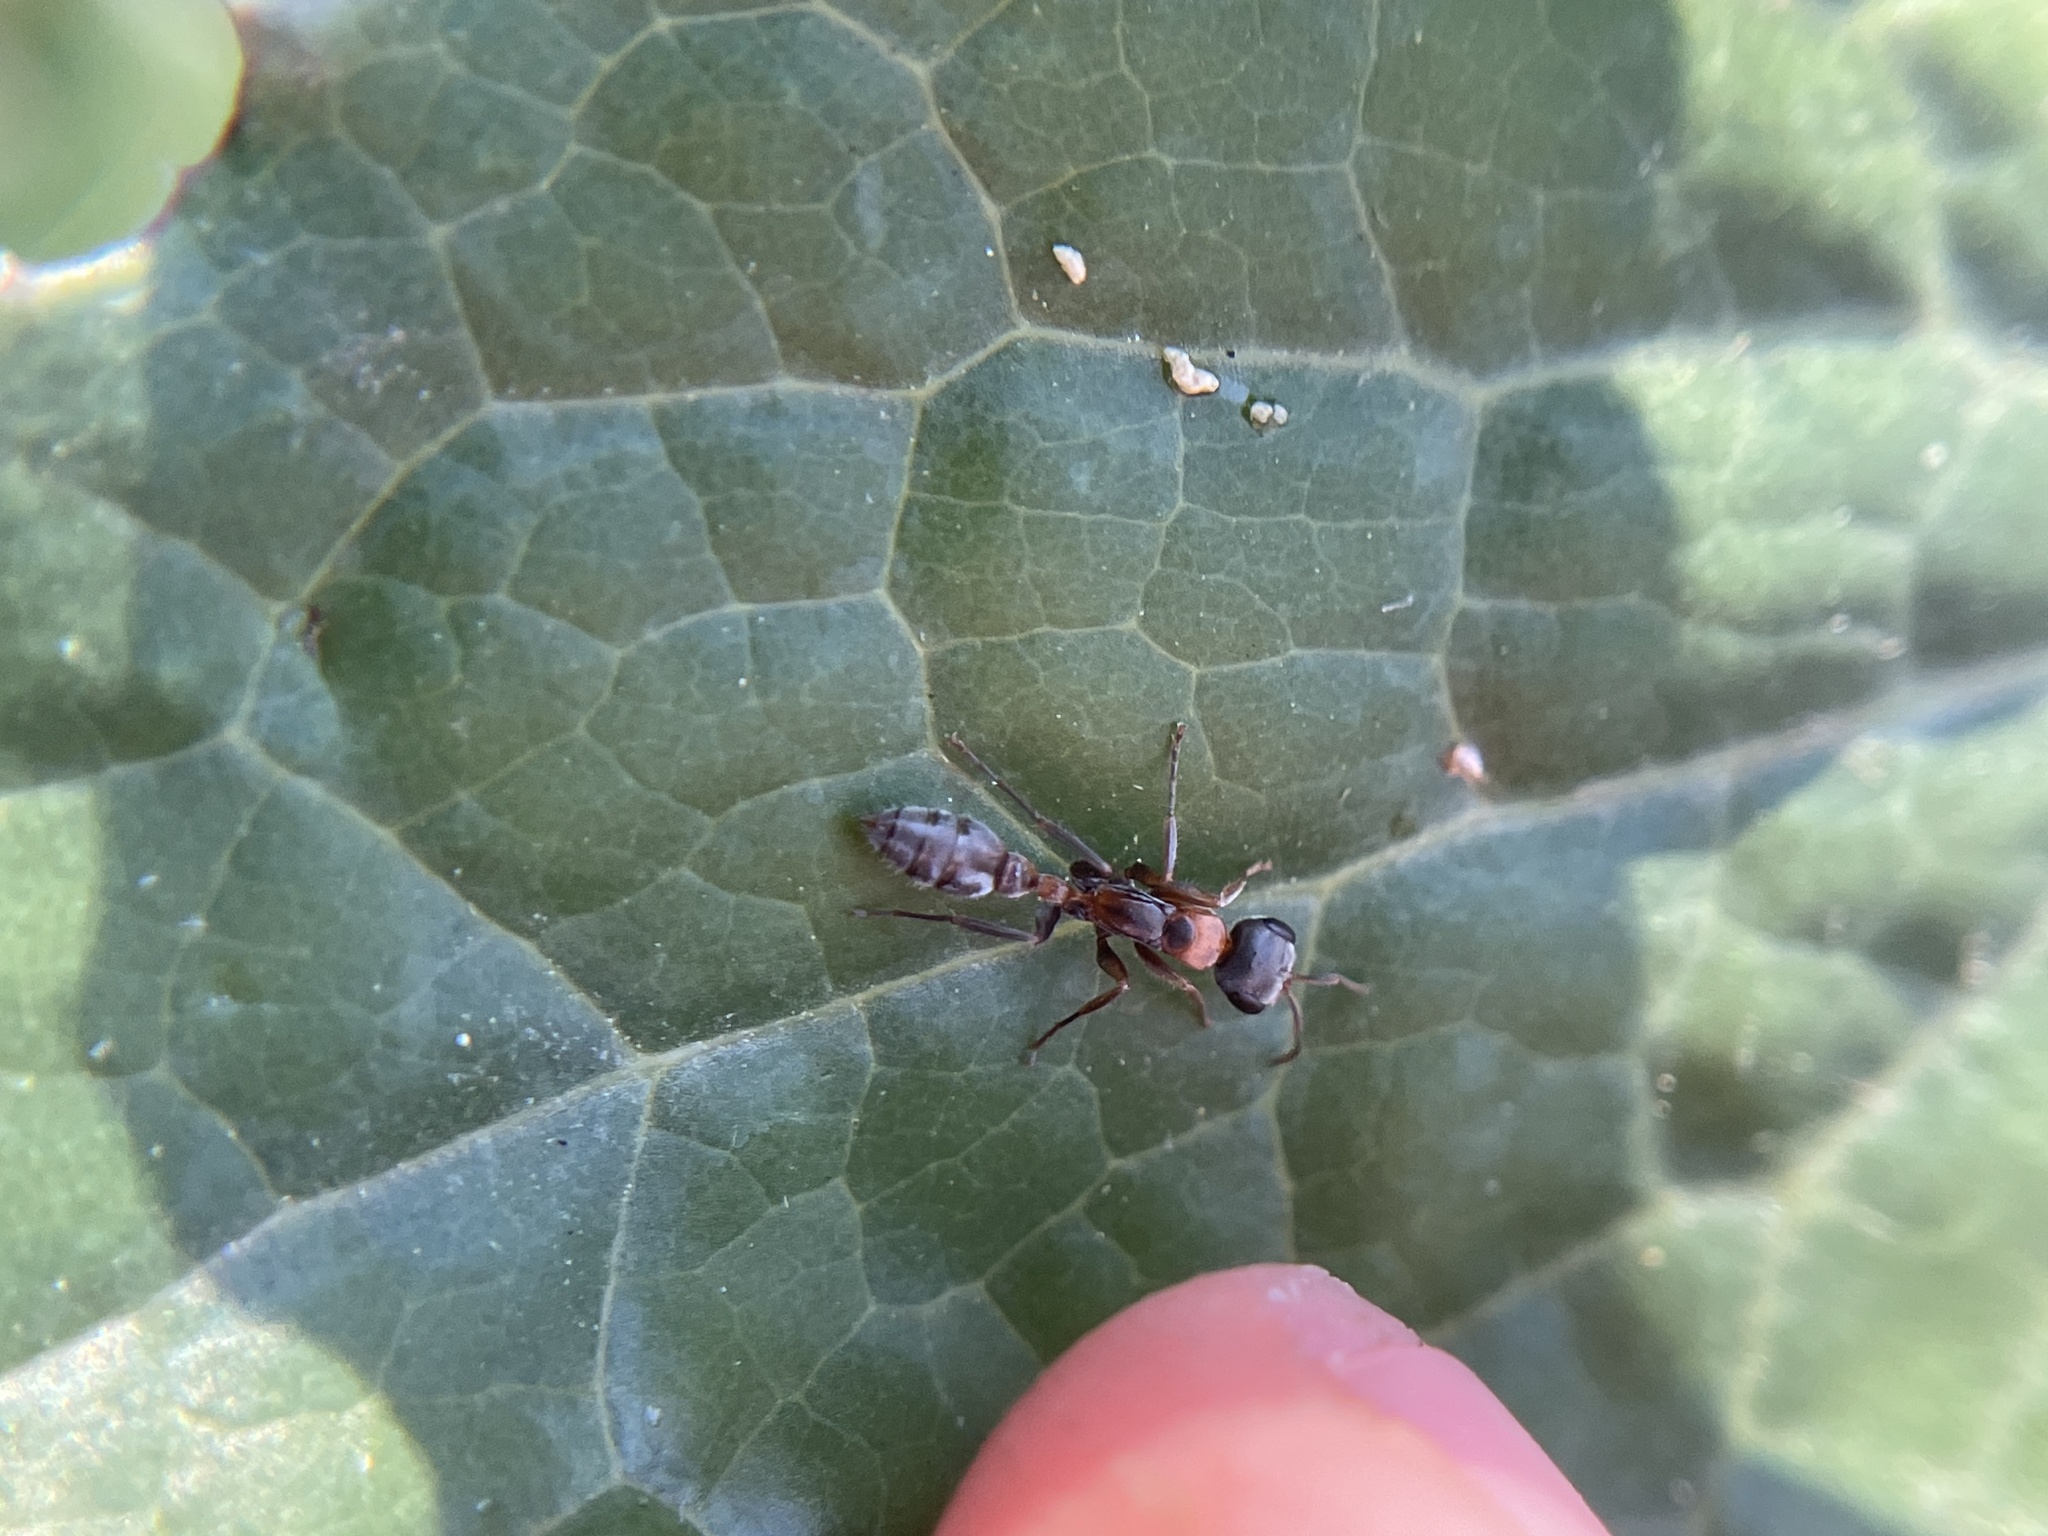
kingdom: Animalia
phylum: Arthropoda
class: Insecta
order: Hymenoptera
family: Formicidae
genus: Pseudomyrmex
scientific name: Pseudomyrmex gracilis
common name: Graceful twig ant
